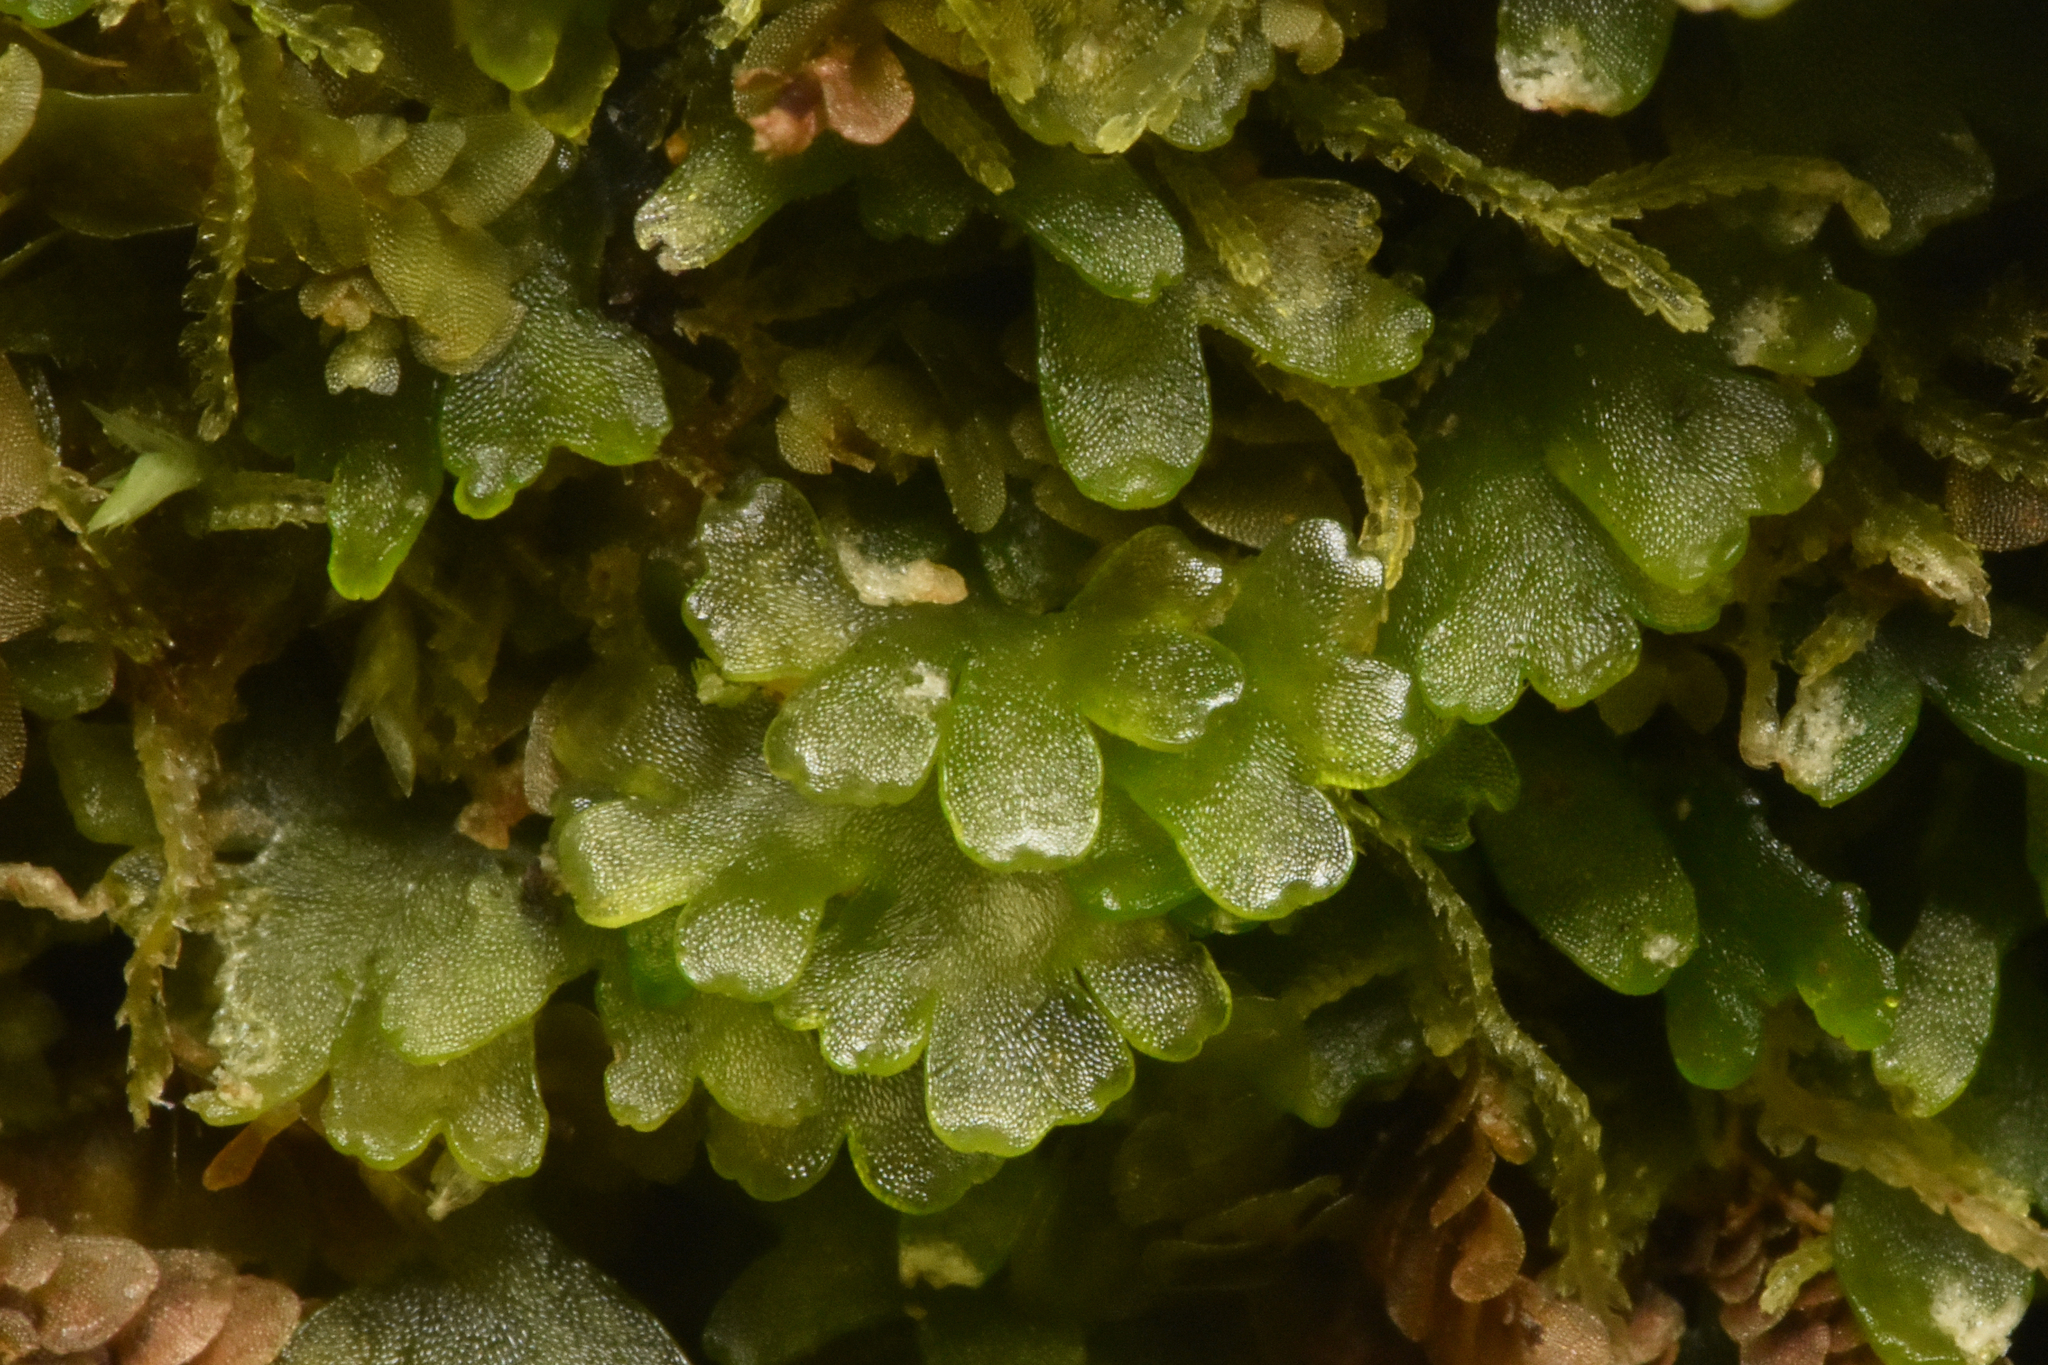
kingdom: Plantae
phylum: Marchantiophyta
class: Jungermanniopsida
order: Metzgeriales
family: Aneuraceae
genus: Riccardia
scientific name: Riccardia latifrons
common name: Bog germanderwort
